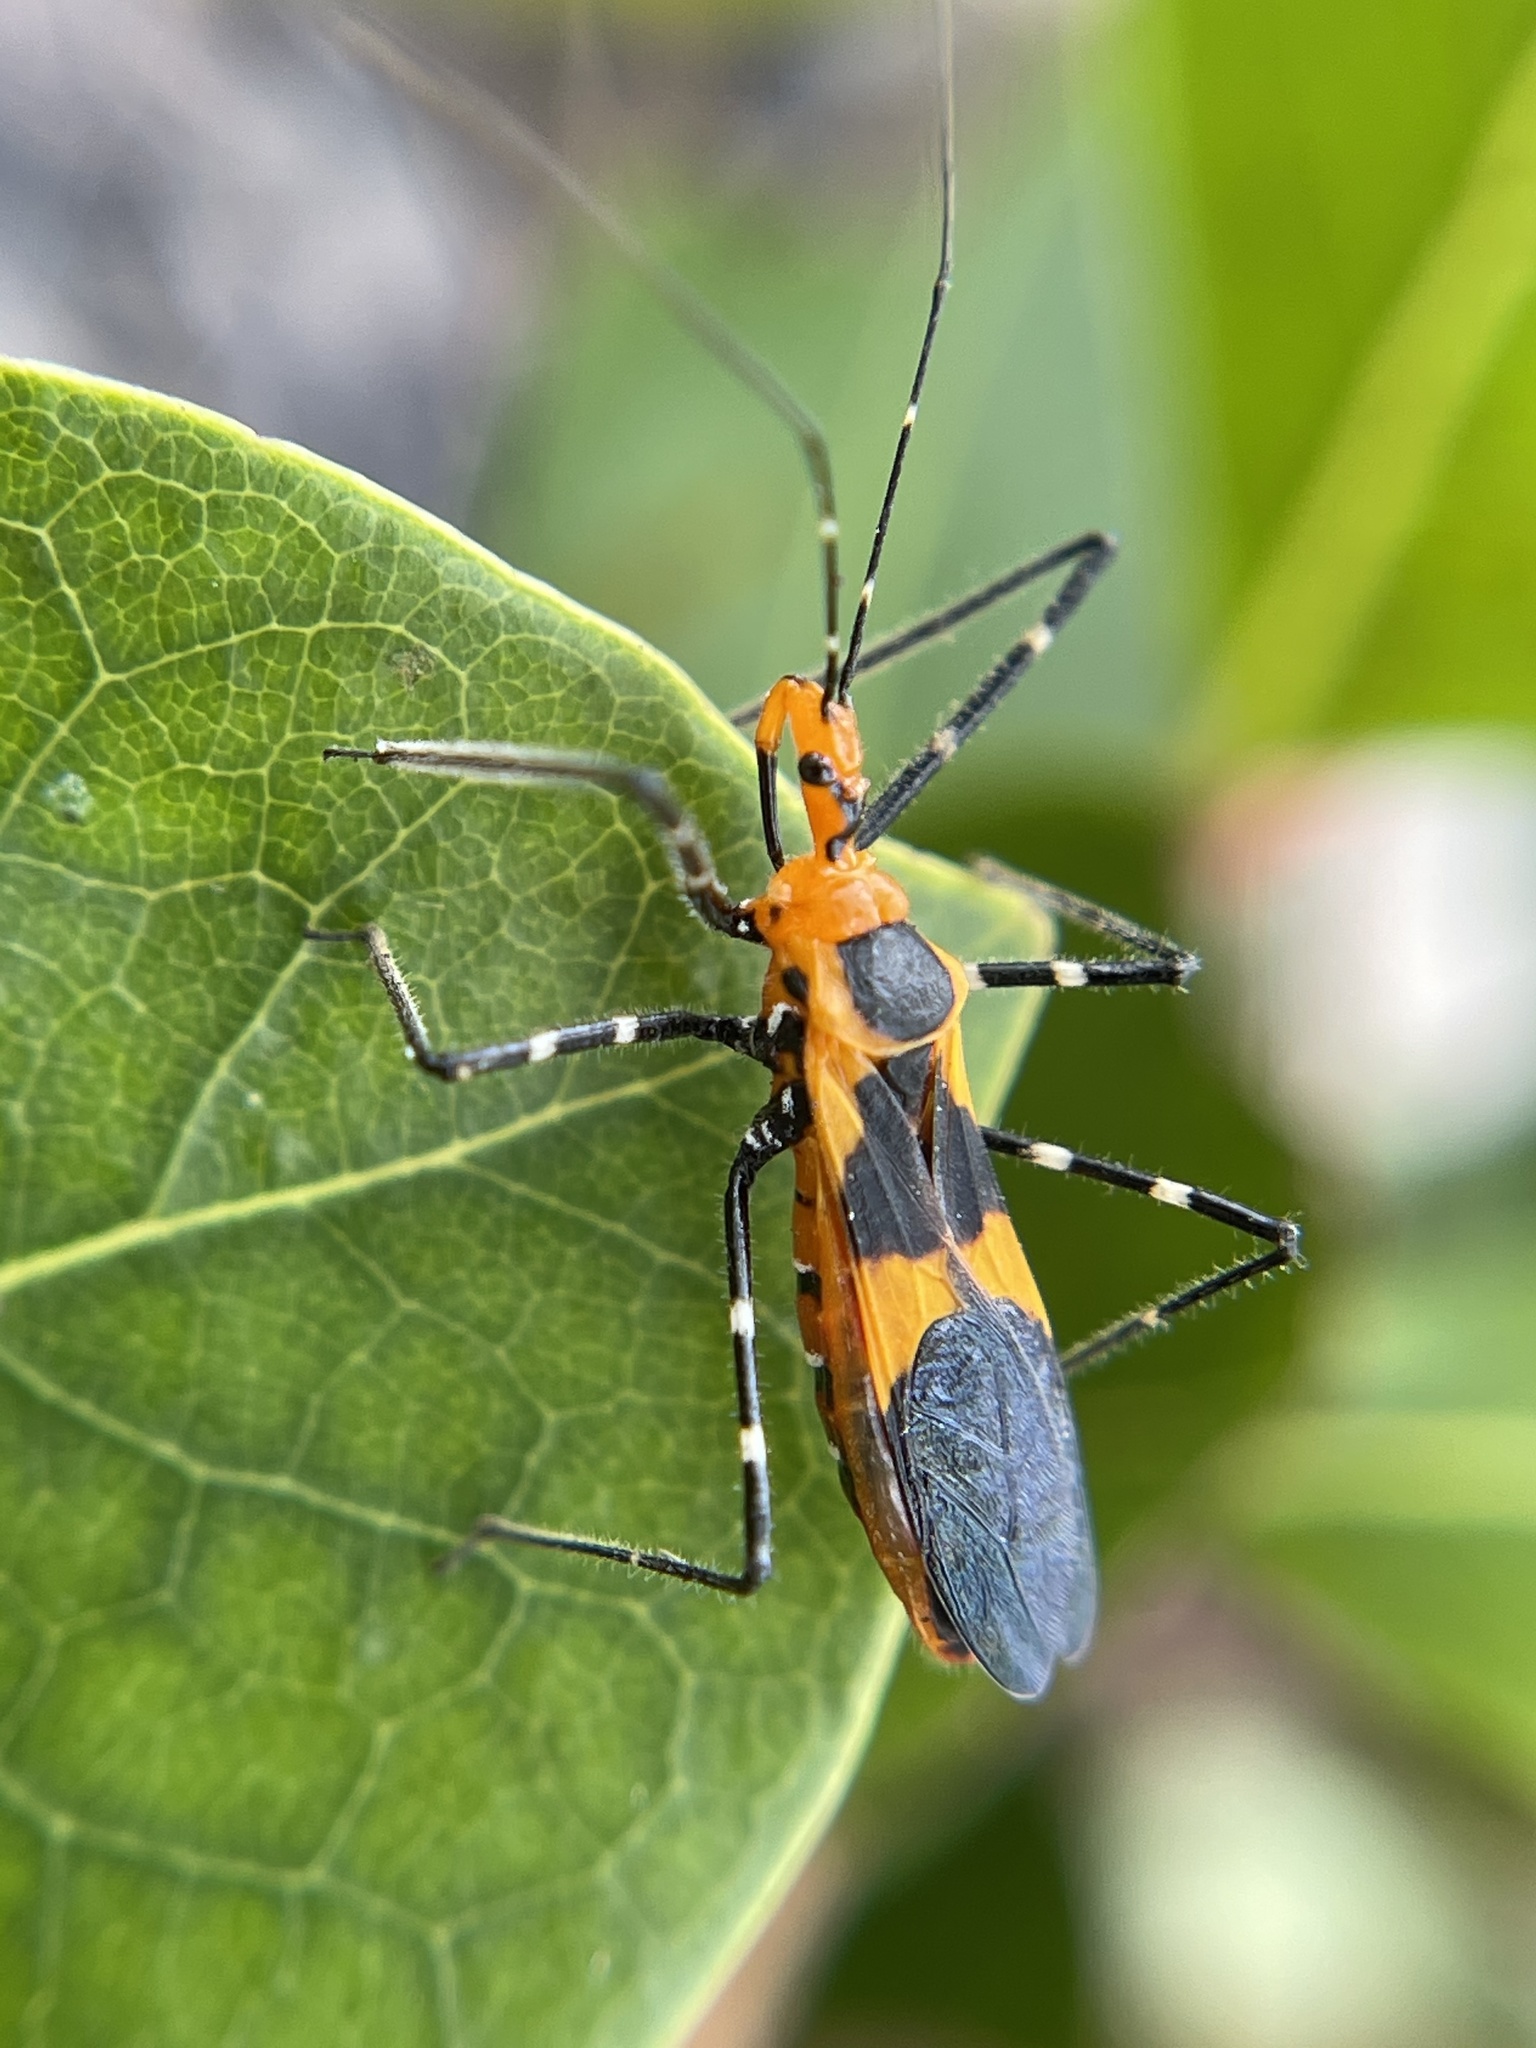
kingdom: Animalia
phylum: Arthropoda
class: Insecta
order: Hemiptera
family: Reduviidae
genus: Zelus
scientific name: Zelus longipes
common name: Milkweed assassin bug
